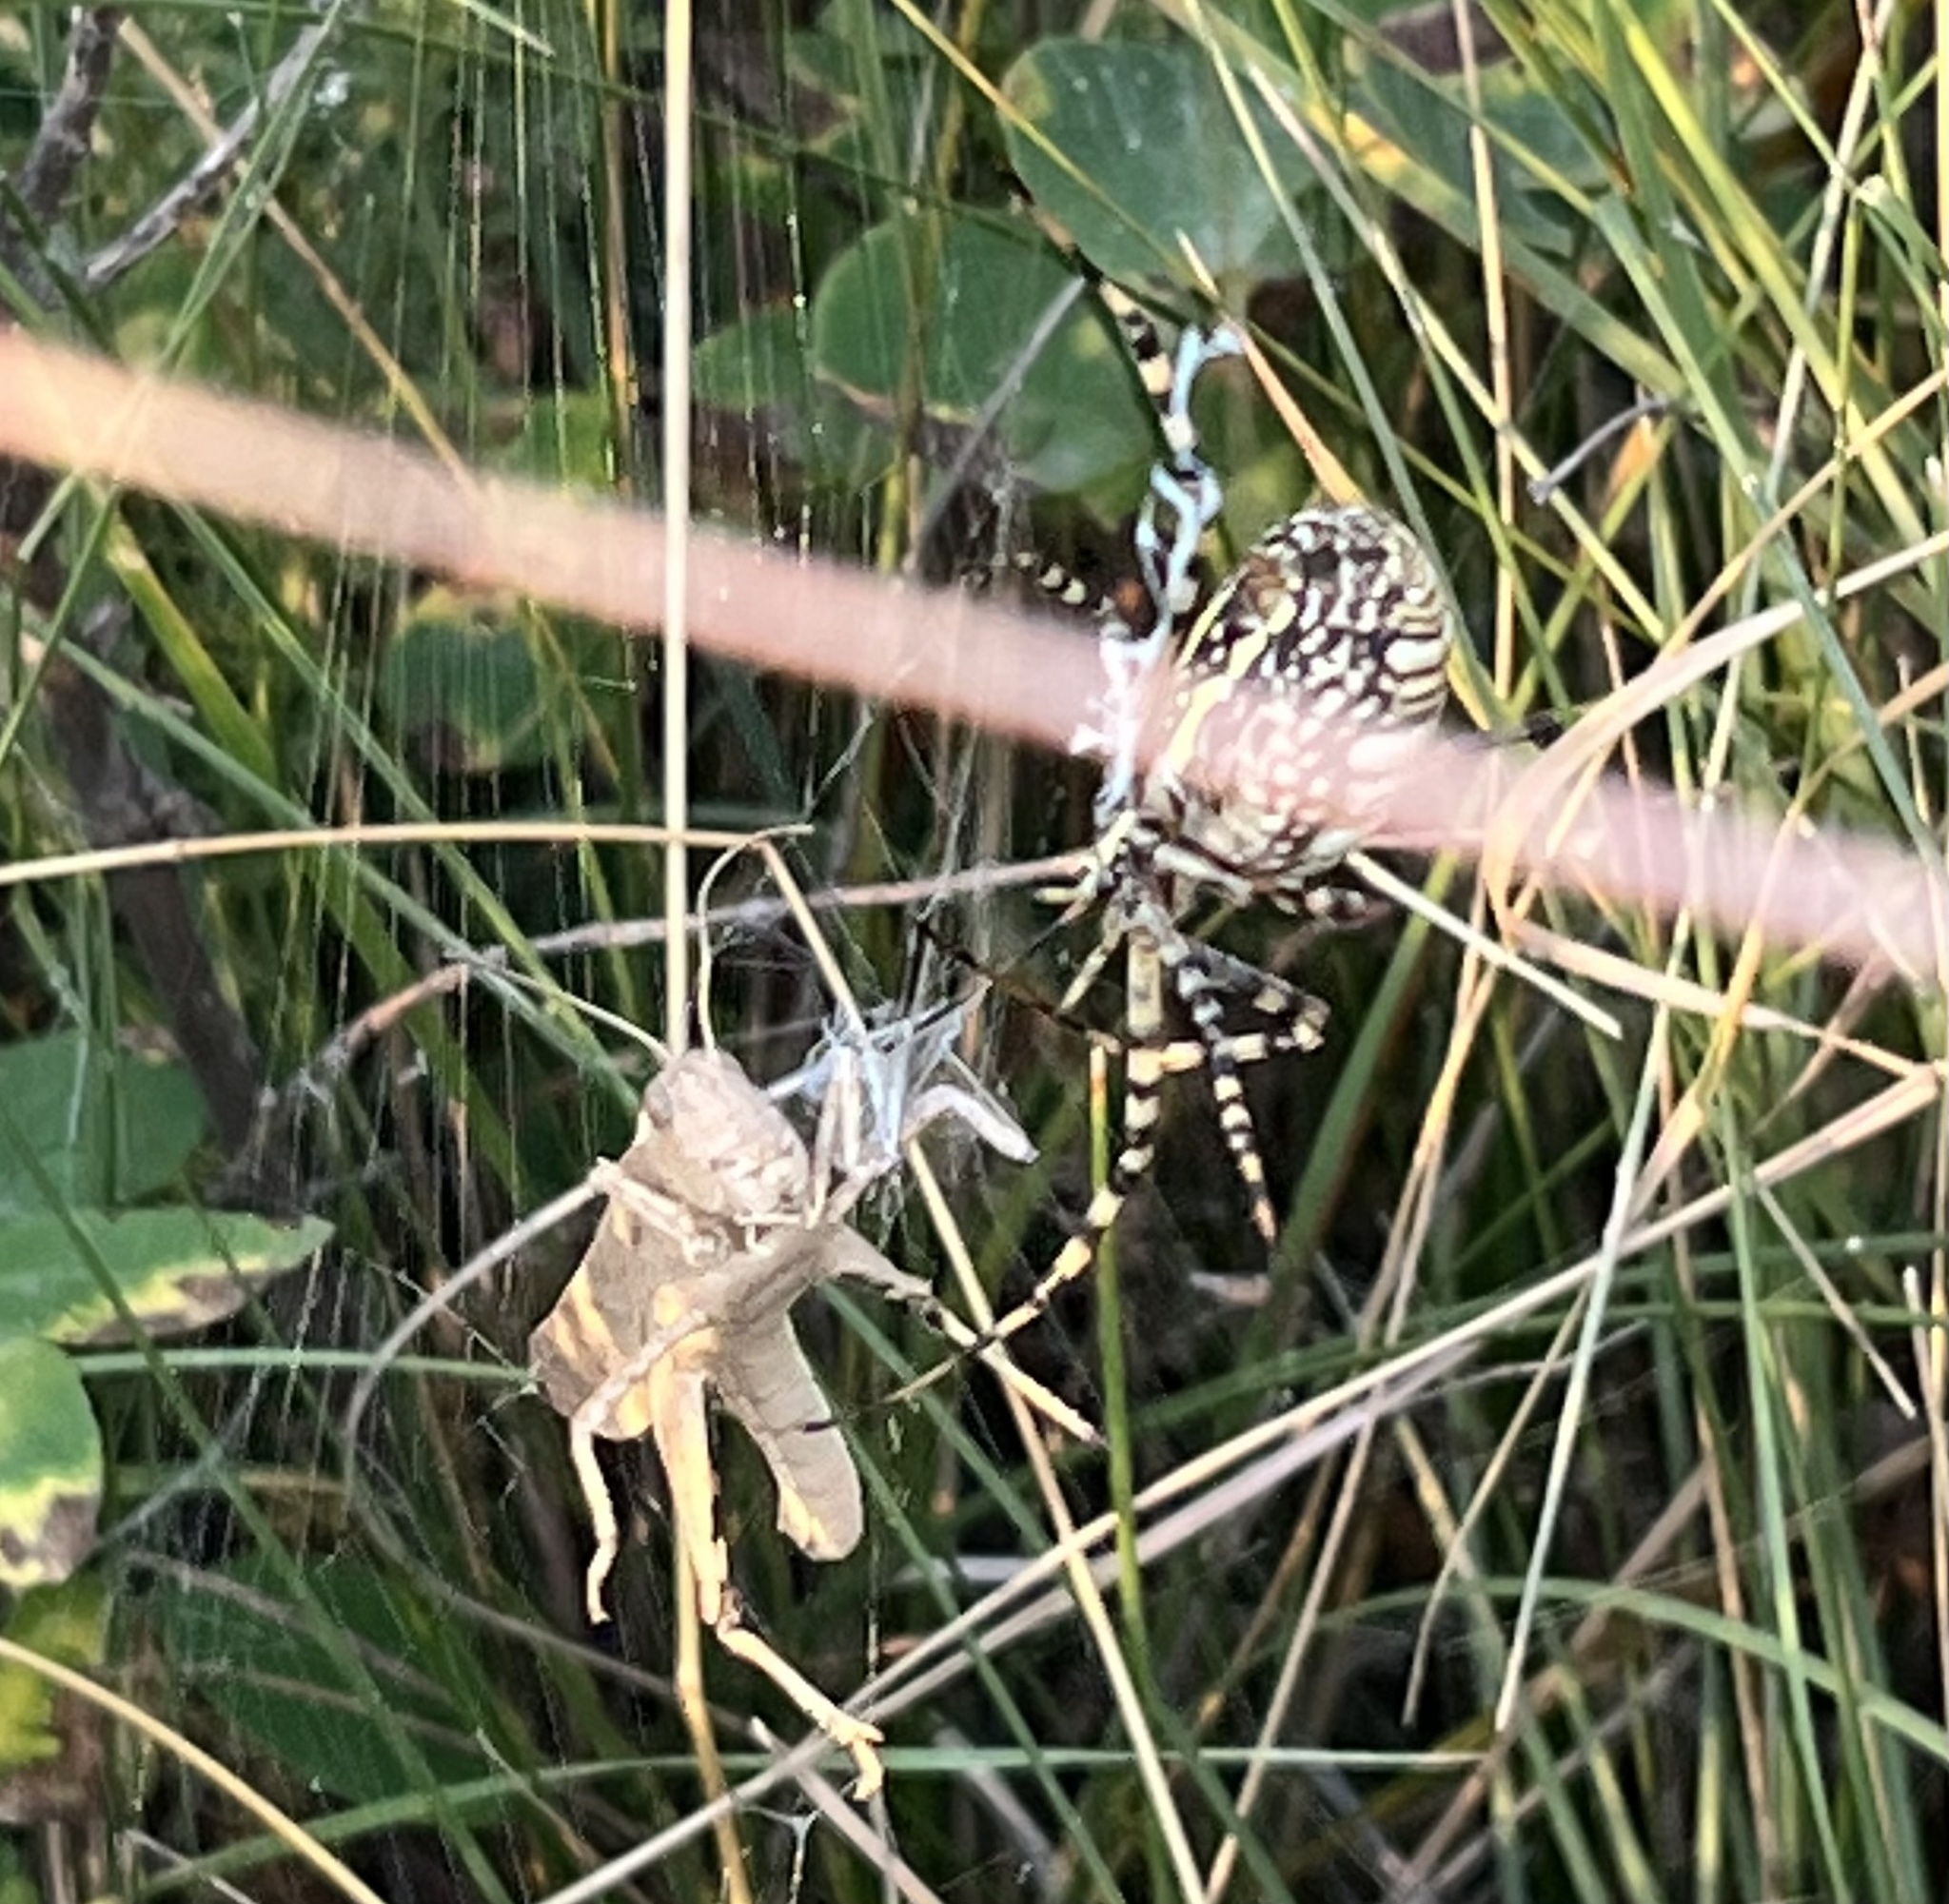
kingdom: Animalia
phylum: Arthropoda
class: Arachnida
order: Araneae
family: Araneidae
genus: Argiope
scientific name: Argiope trifasciata
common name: Banded garden spider
